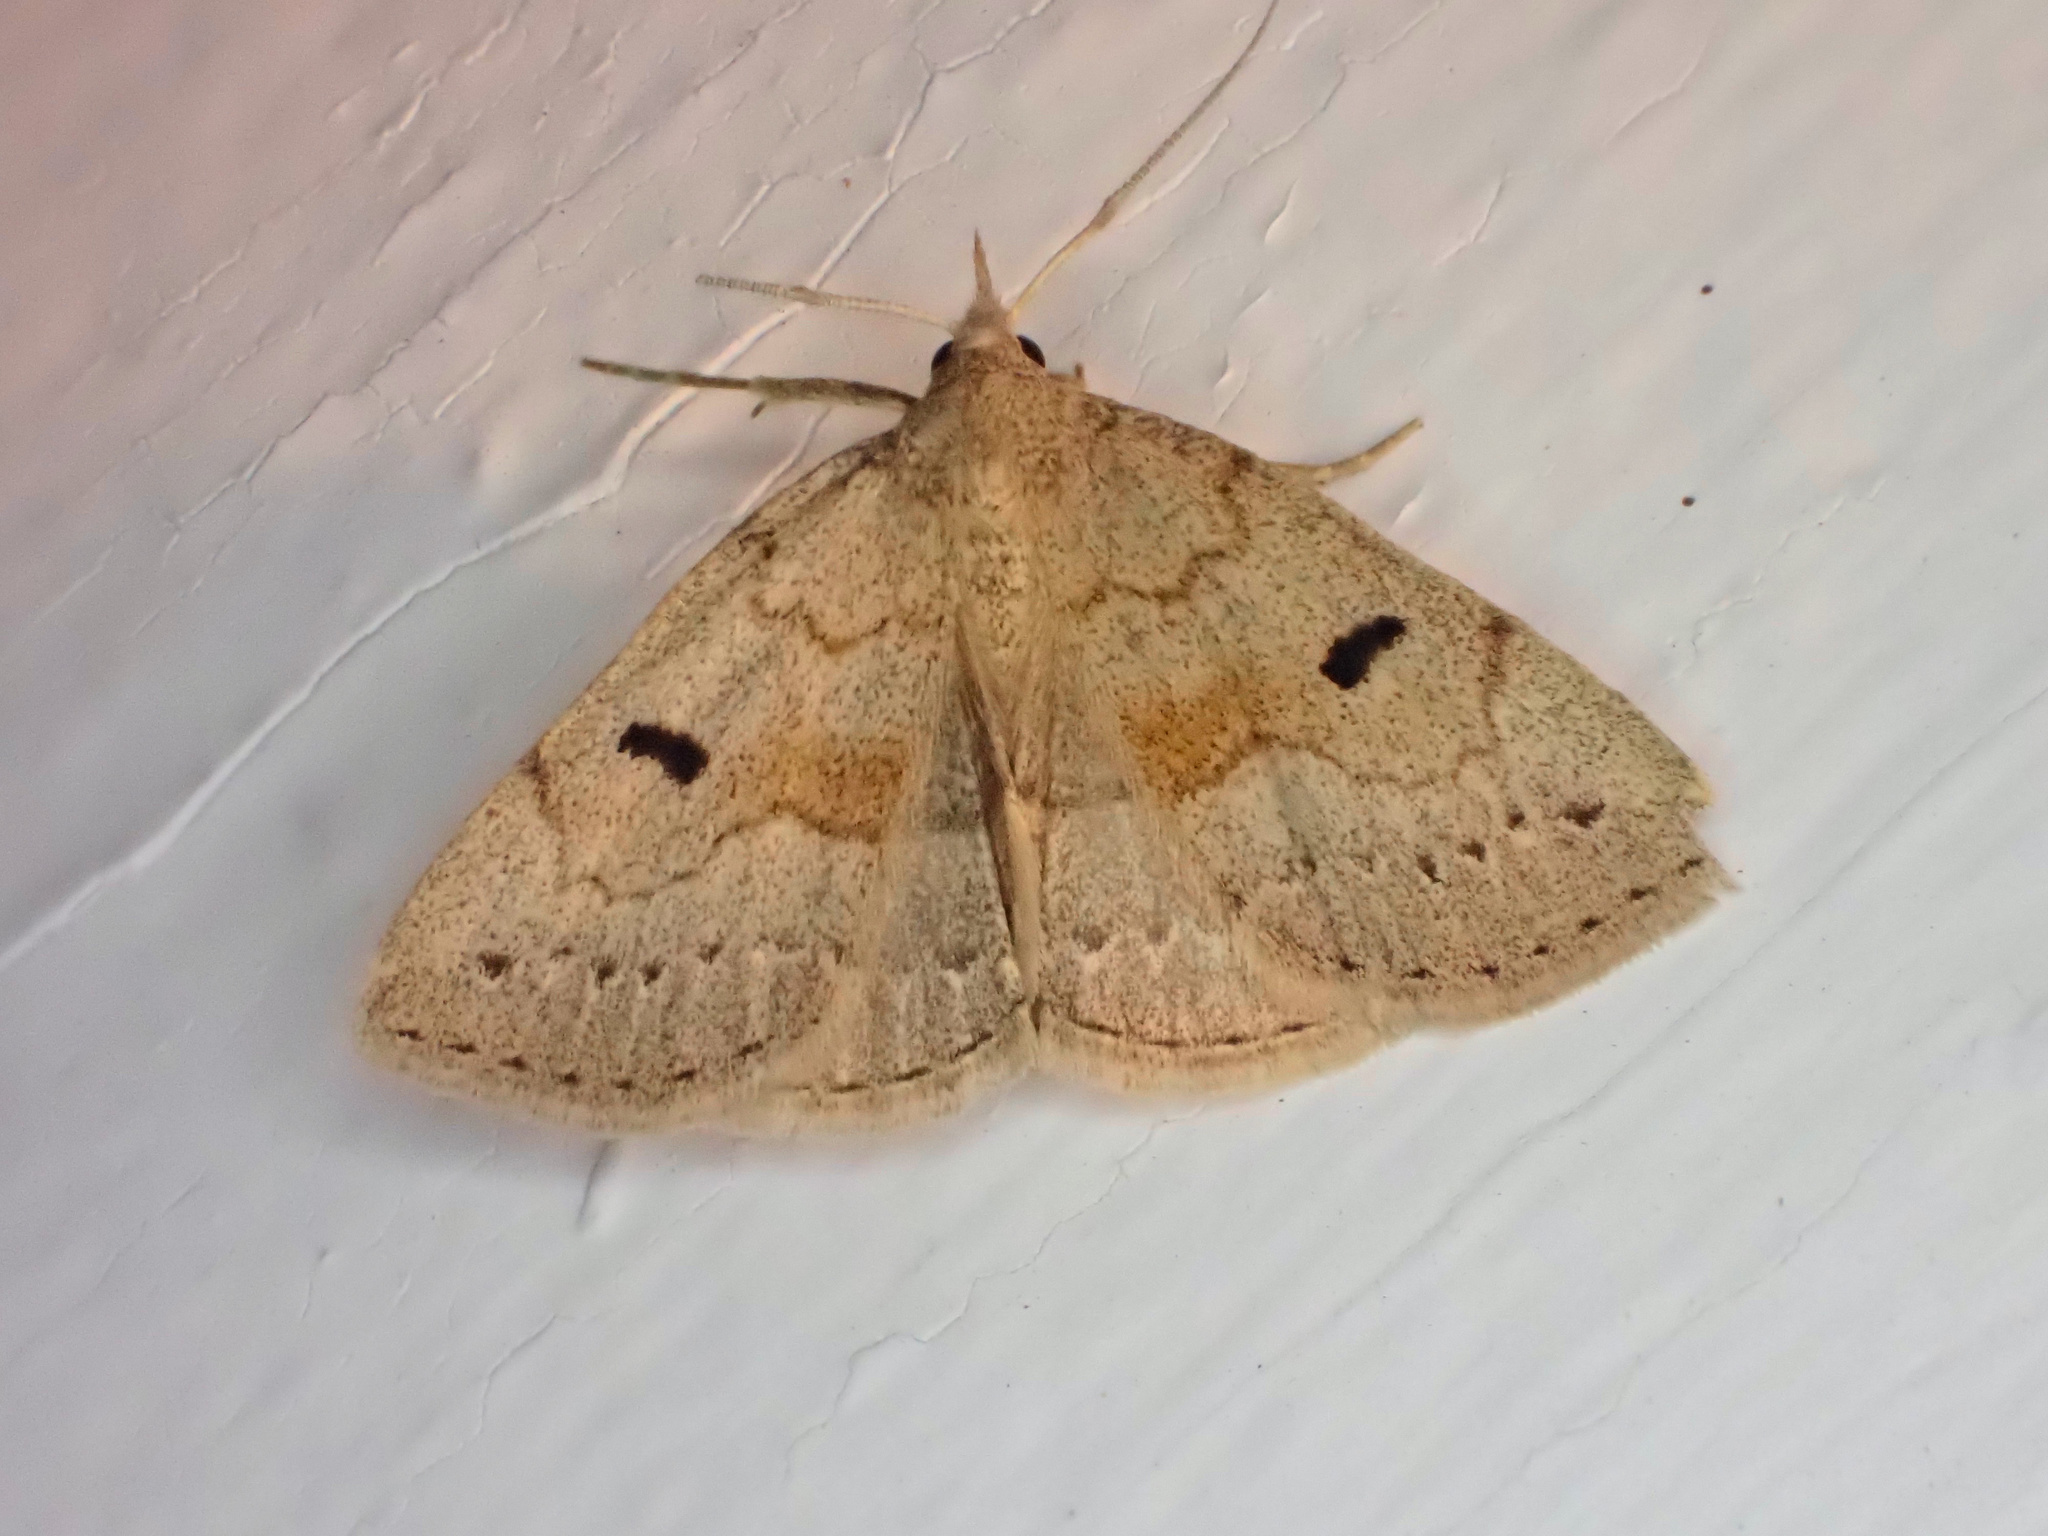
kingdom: Animalia
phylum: Arthropoda
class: Insecta
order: Lepidoptera
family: Erebidae
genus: Macrochilo
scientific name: Macrochilo morbidalis
